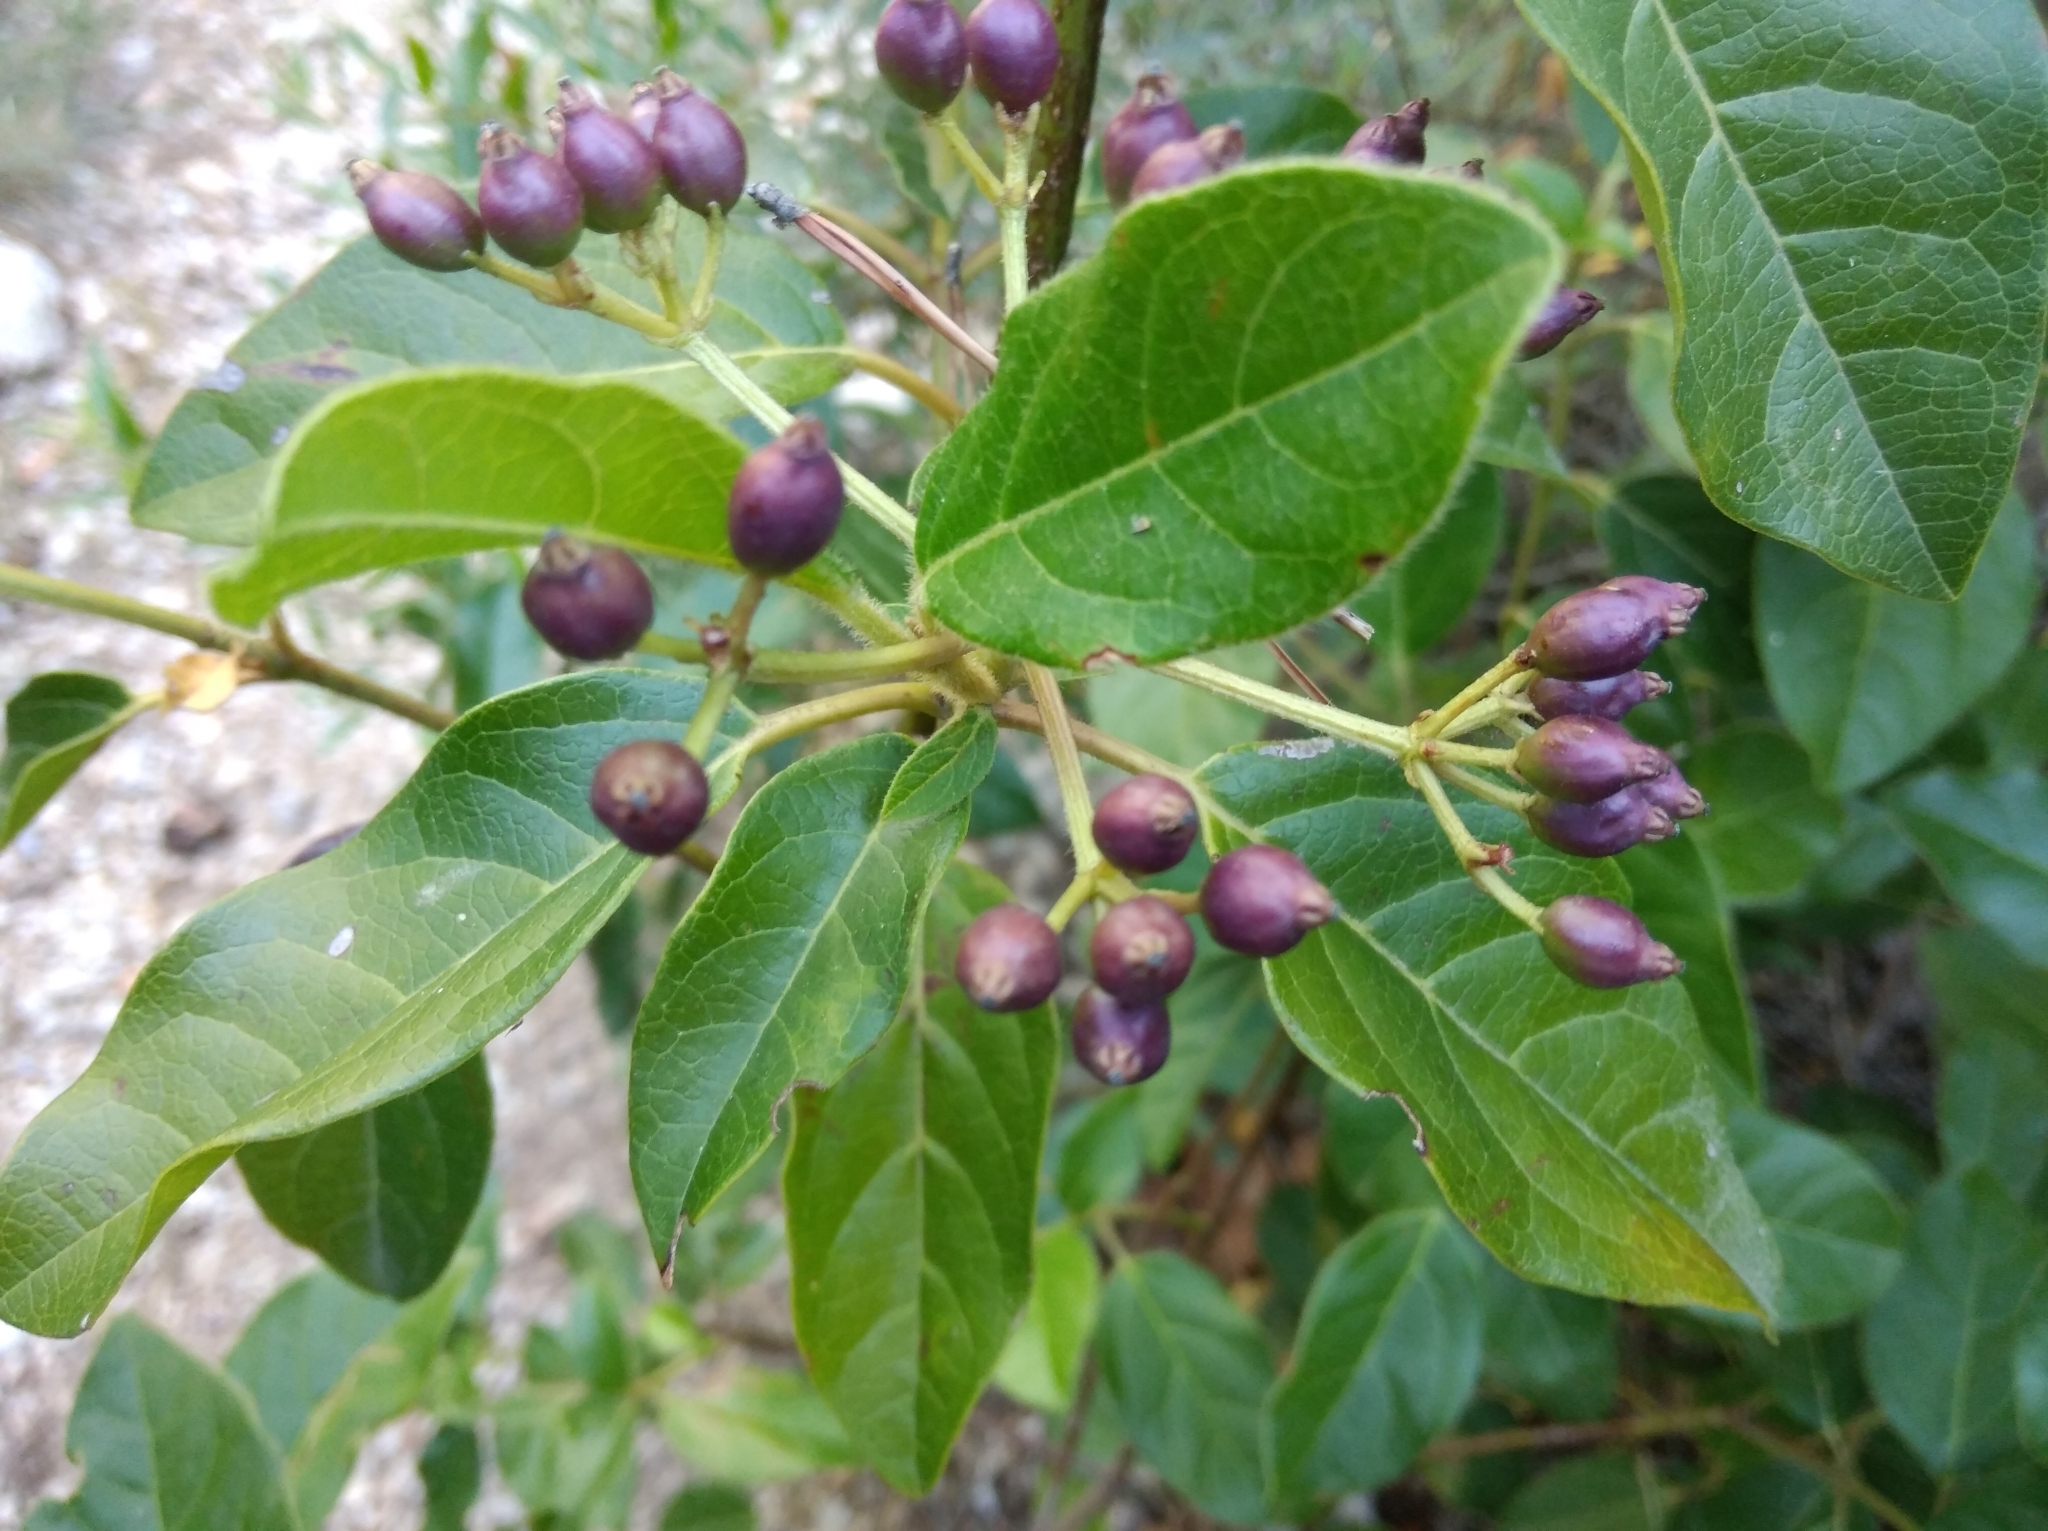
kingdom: Plantae
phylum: Tracheophyta
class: Magnoliopsida
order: Dipsacales
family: Viburnaceae
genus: Viburnum
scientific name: Viburnum tinus
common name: Laurustinus
